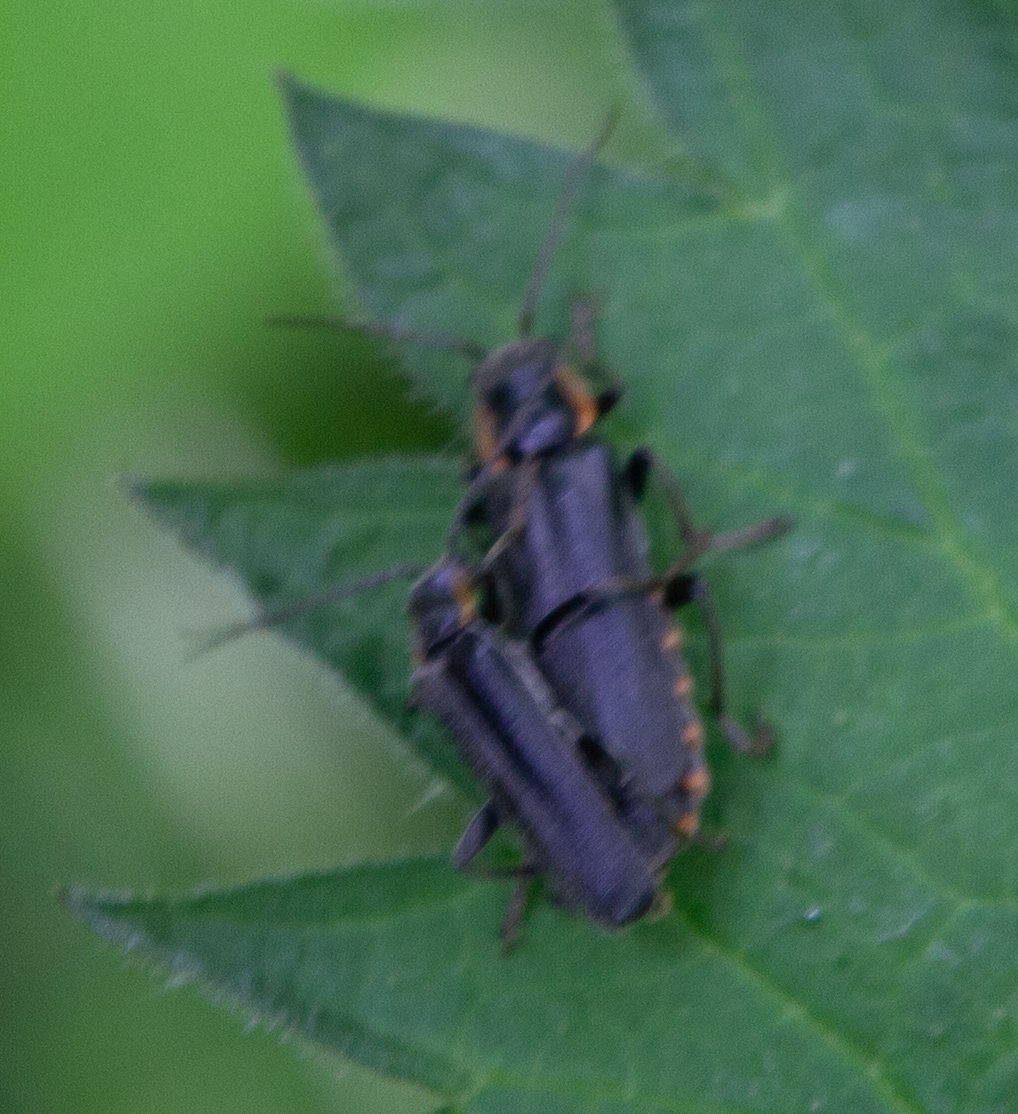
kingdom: Animalia
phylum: Arthropoda
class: Insecta
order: Coleoptera
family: Cantharidae
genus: Cantharis
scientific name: Cantharis obscura
